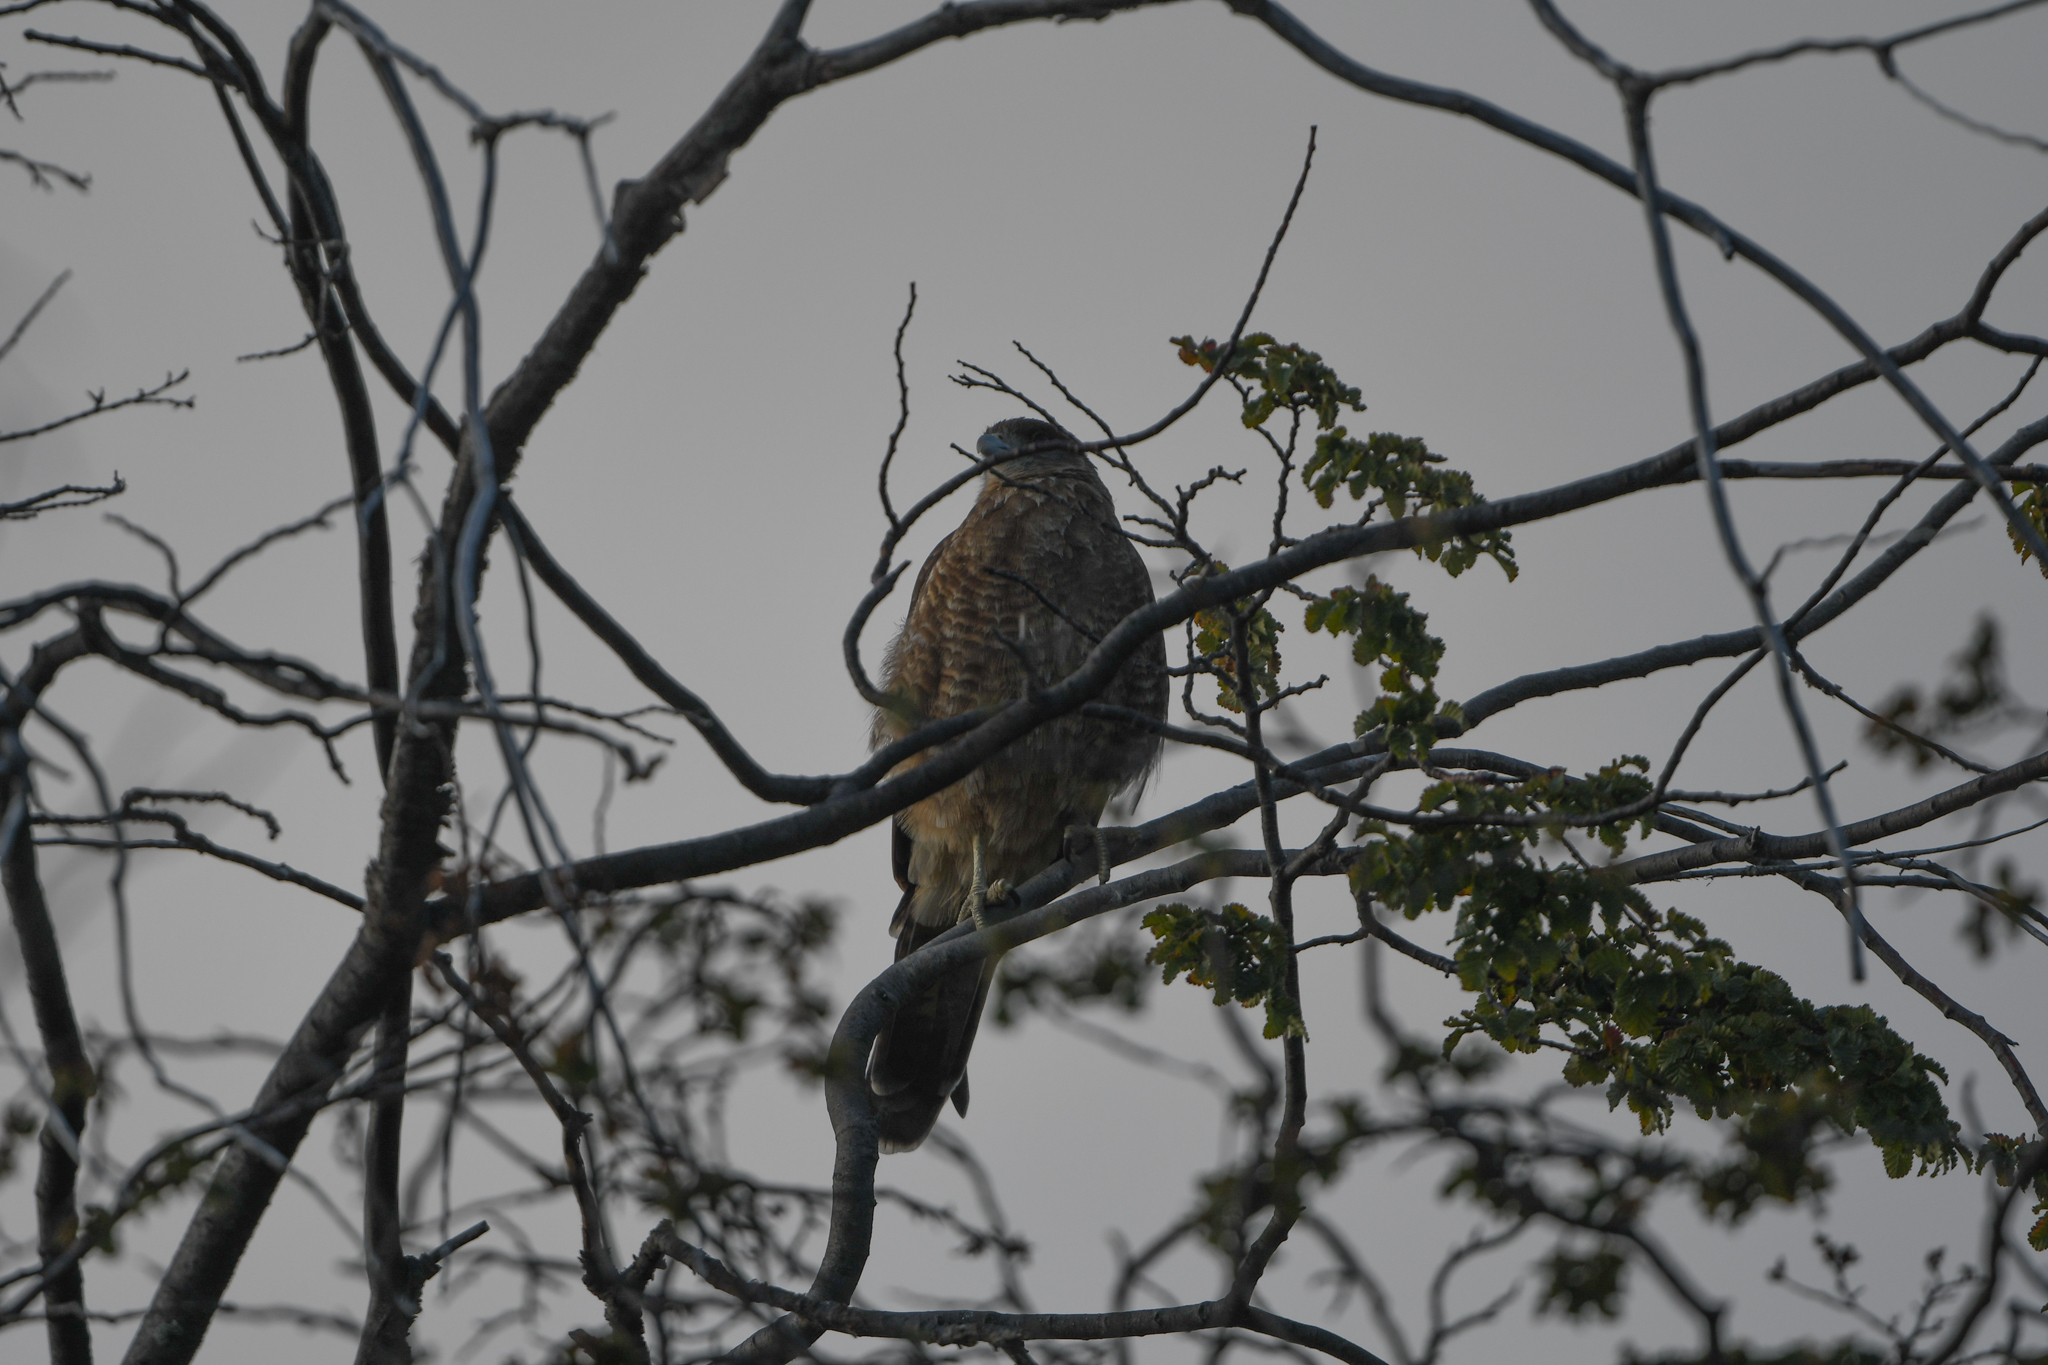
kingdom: Animalia
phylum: Chordata
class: Aves
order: Falconiformes
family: Falconidae
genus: Daptrius
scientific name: Daptrius
